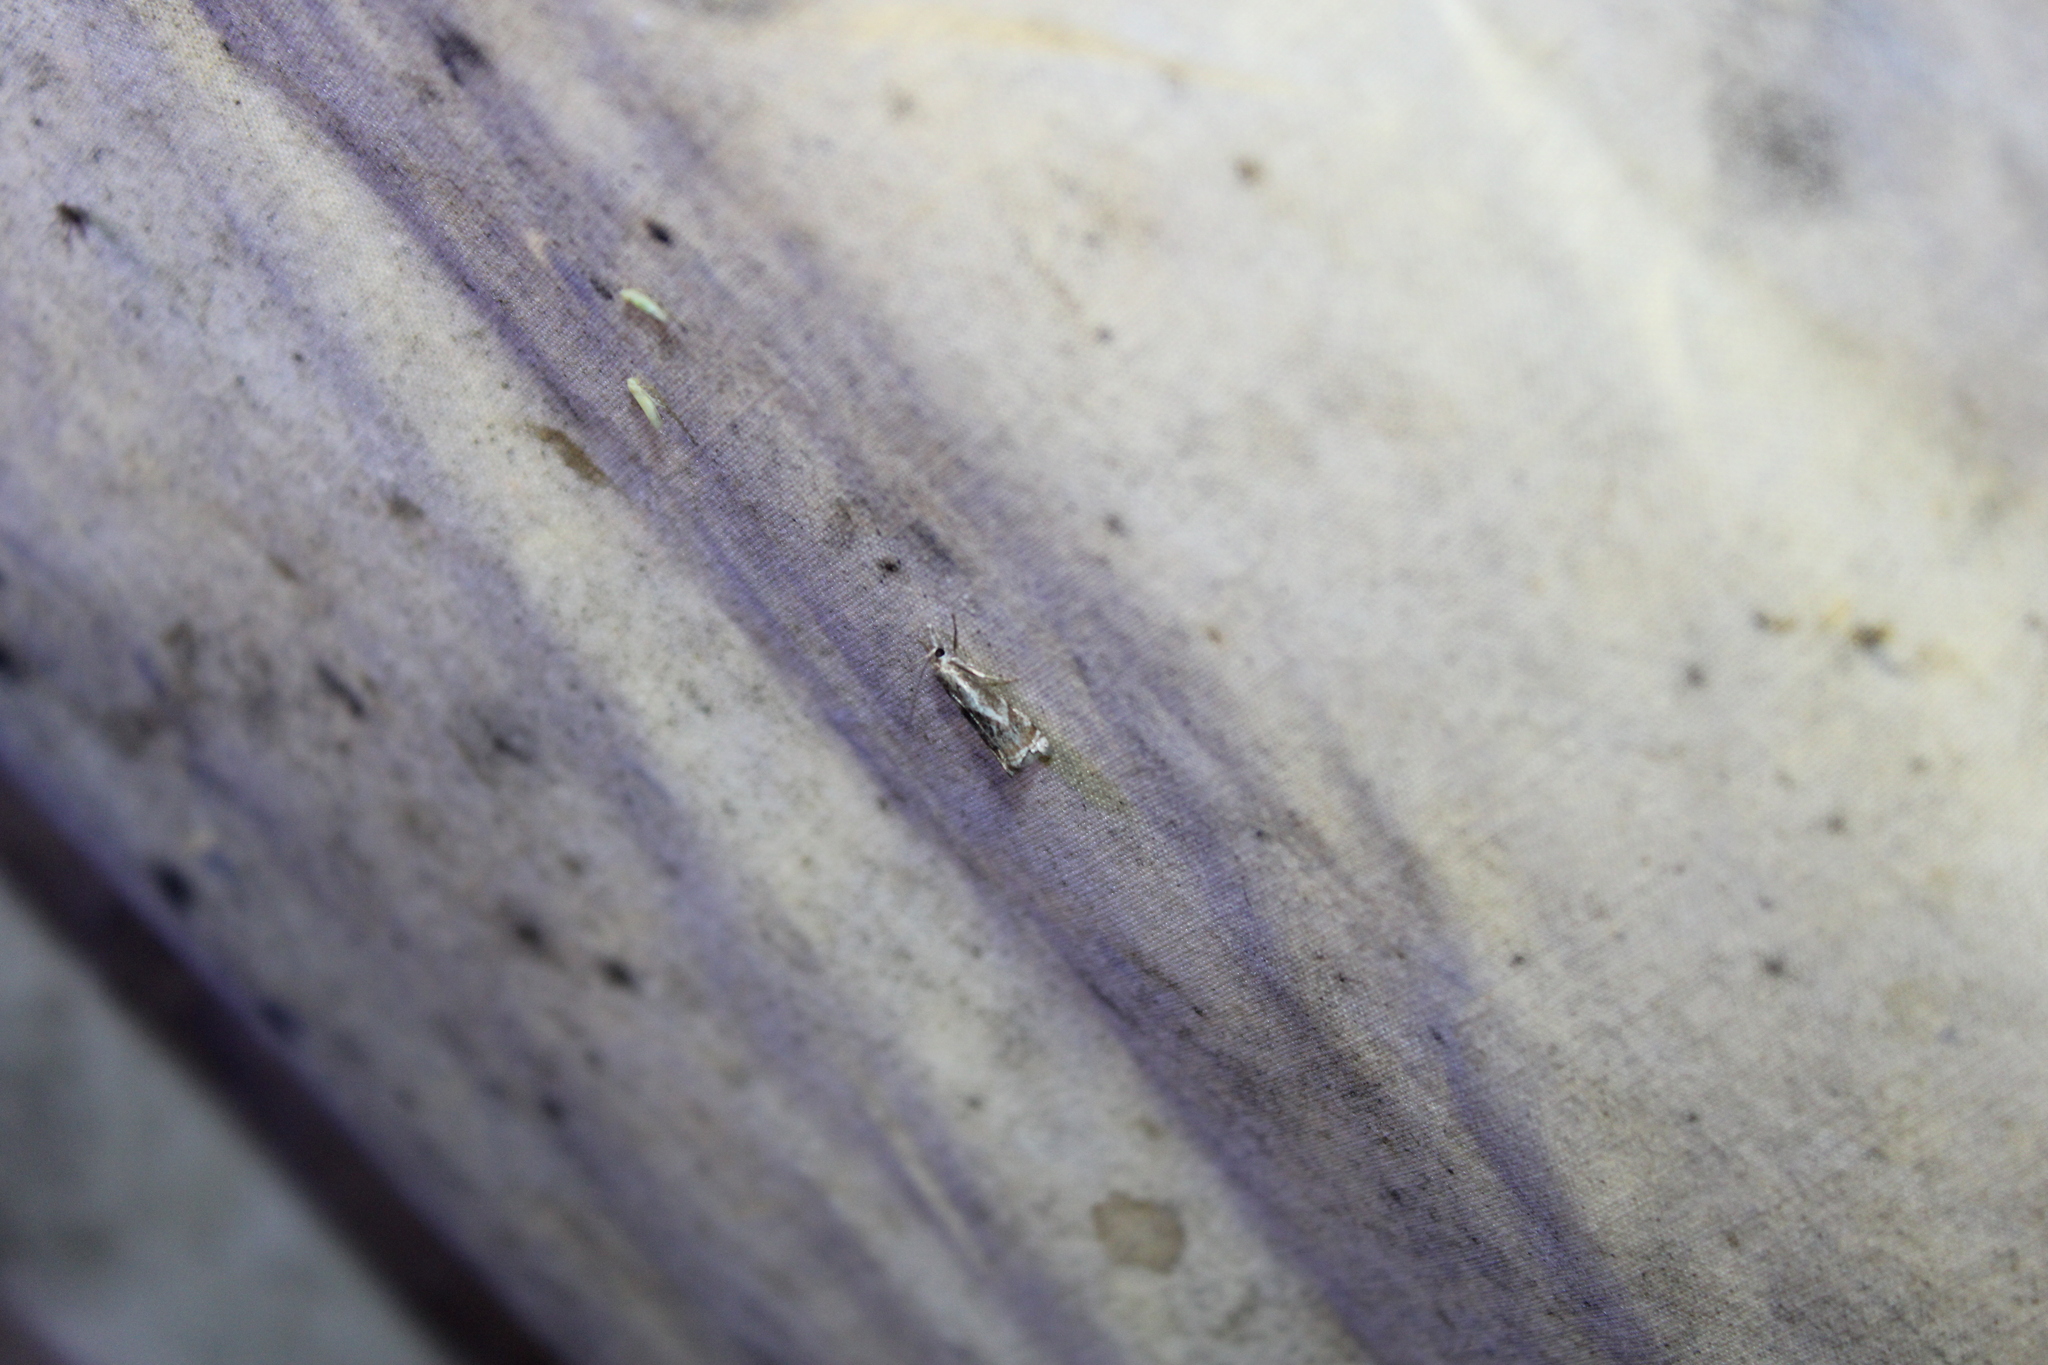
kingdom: Animalia
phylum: Arthropoda
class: Insecta
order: Lepidoptera
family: Crambidae
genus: Microcrambus
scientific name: Microcrambus elegans
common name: Elegant grass-veneer
